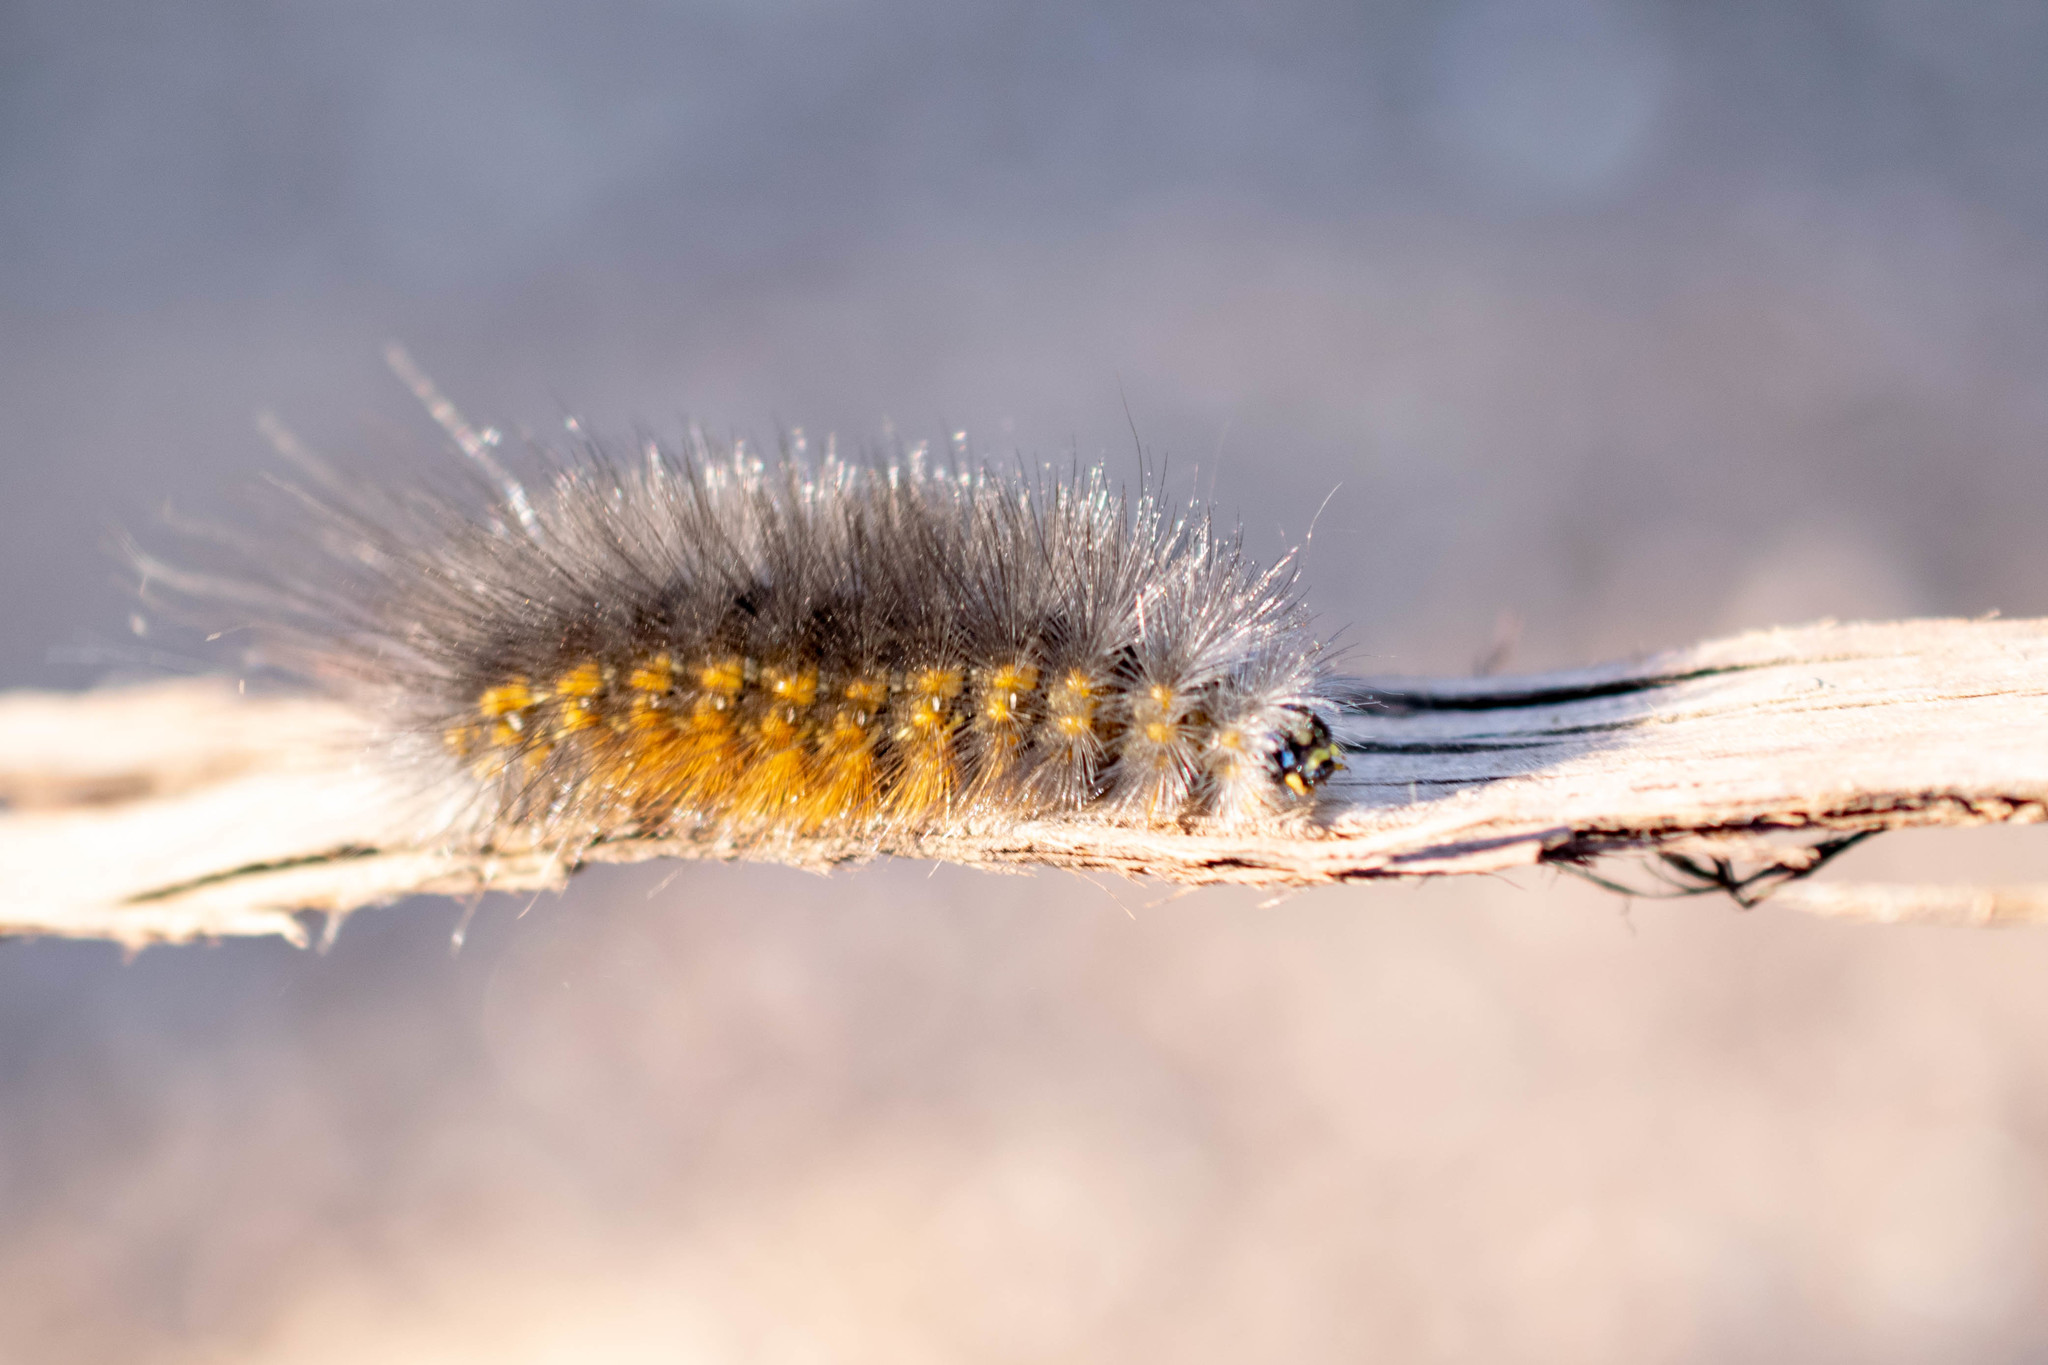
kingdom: Animalia
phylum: Arthropoda
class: Insecta
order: Lepidoptera
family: Erebidae
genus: Estigmene
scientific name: Estigmene acrea
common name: Salt marsh moth
